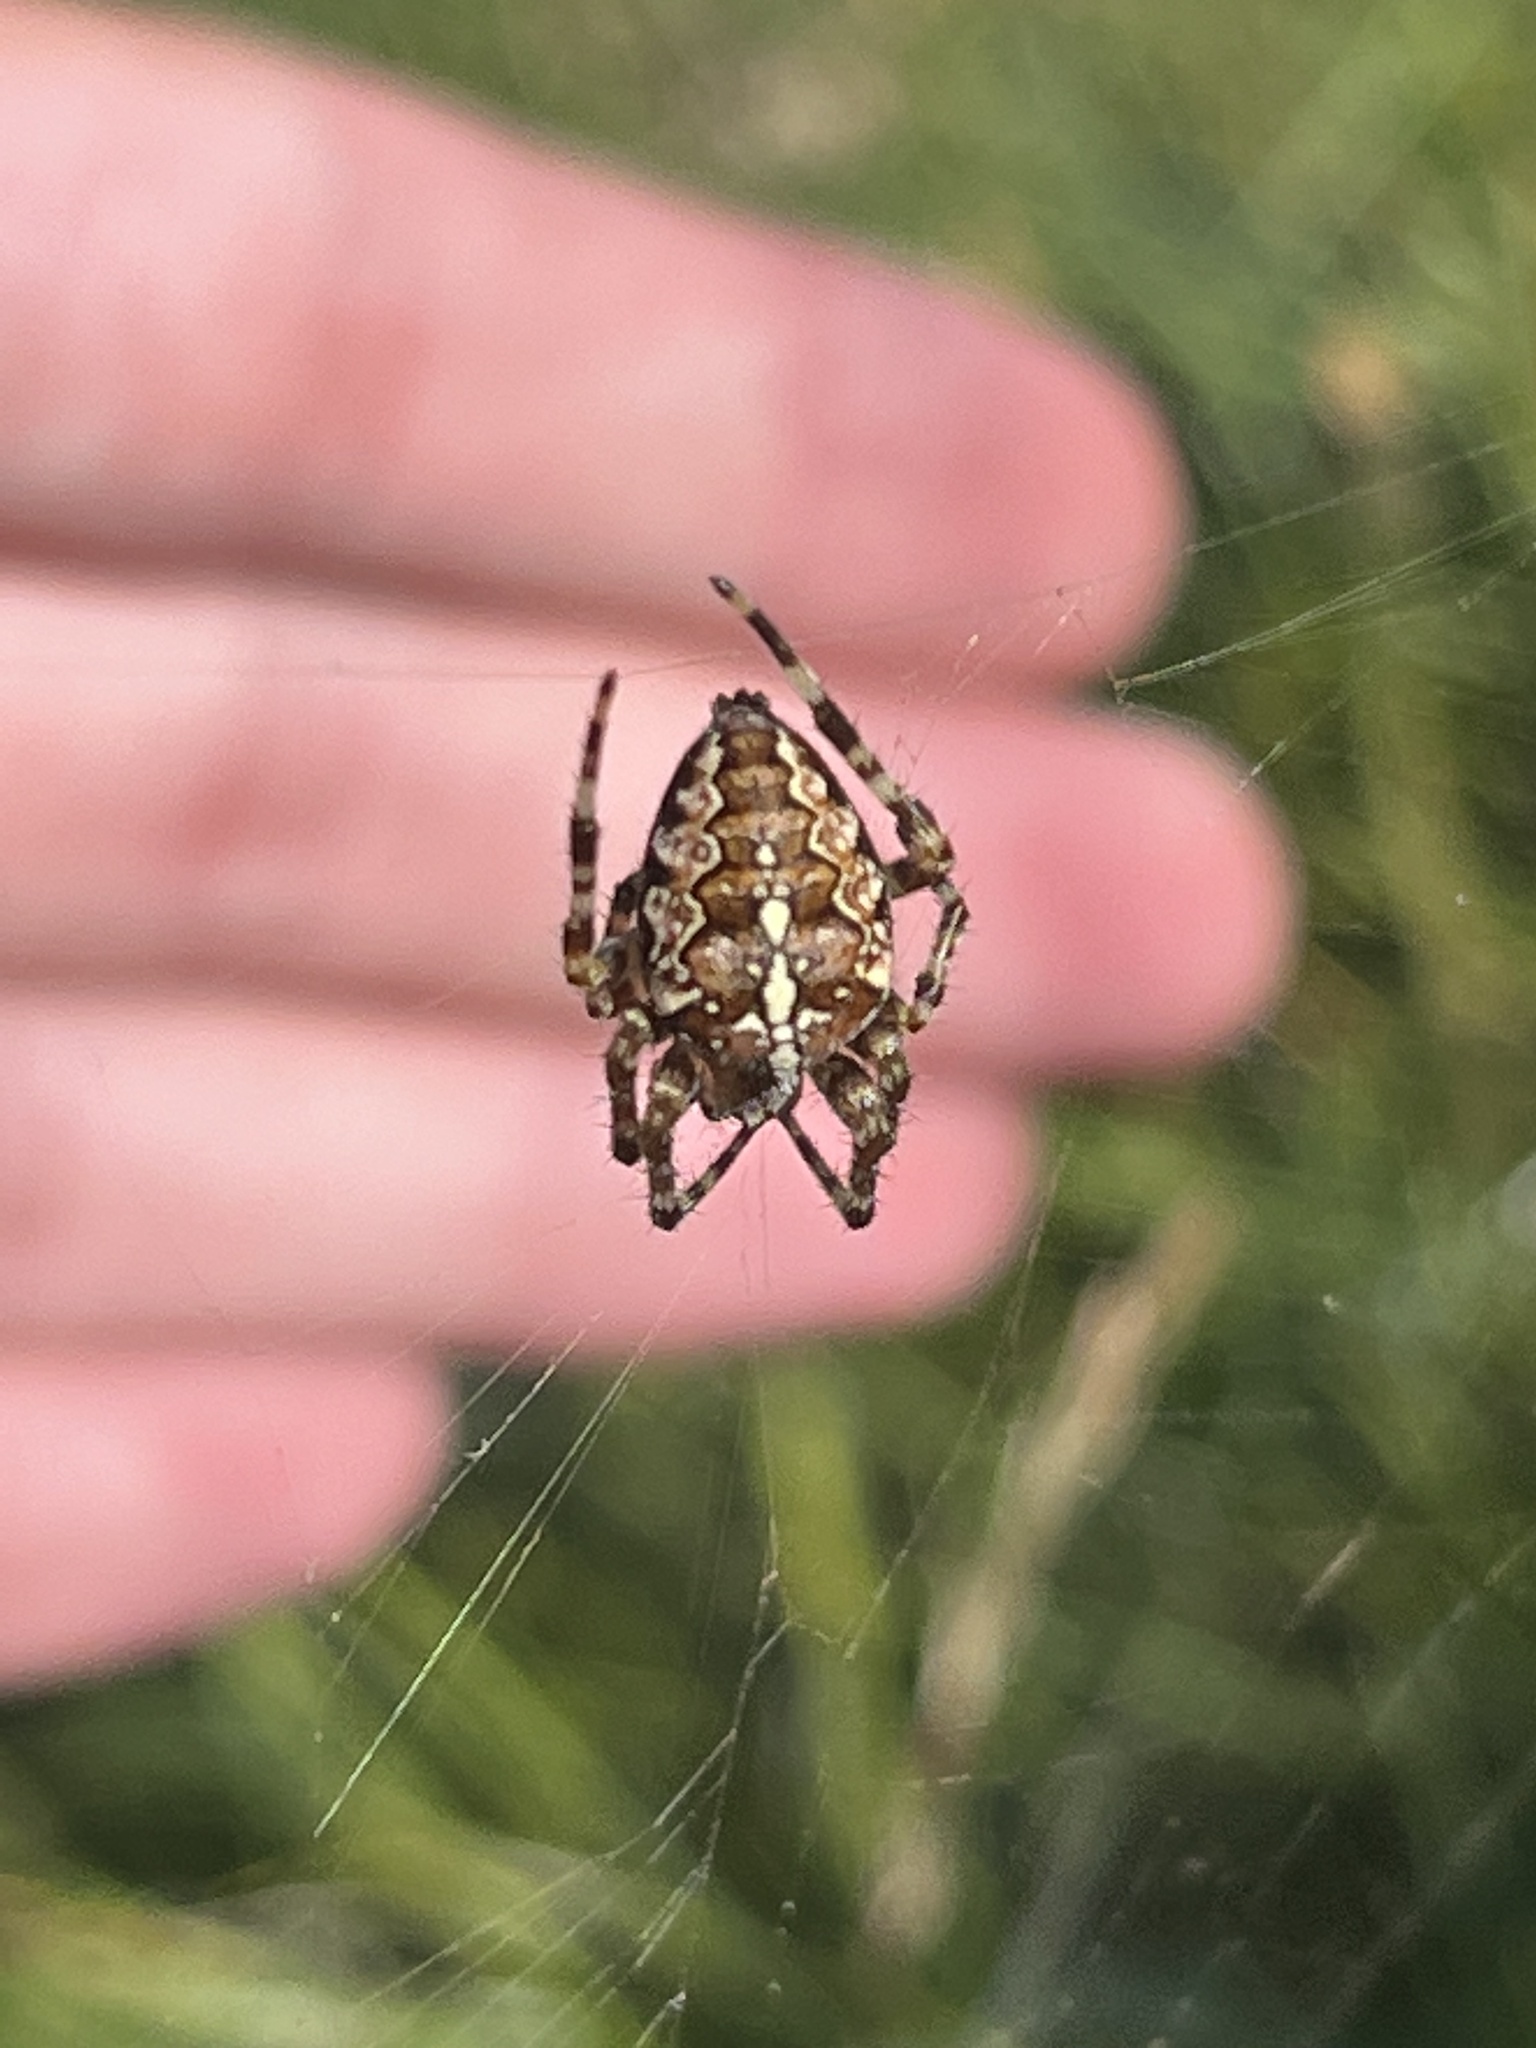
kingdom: Animalia
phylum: Arthropoda
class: Arachnida
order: Araneae
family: Araneidae
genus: Araneus
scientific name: Araneus diadematus
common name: Cross orbweaver
